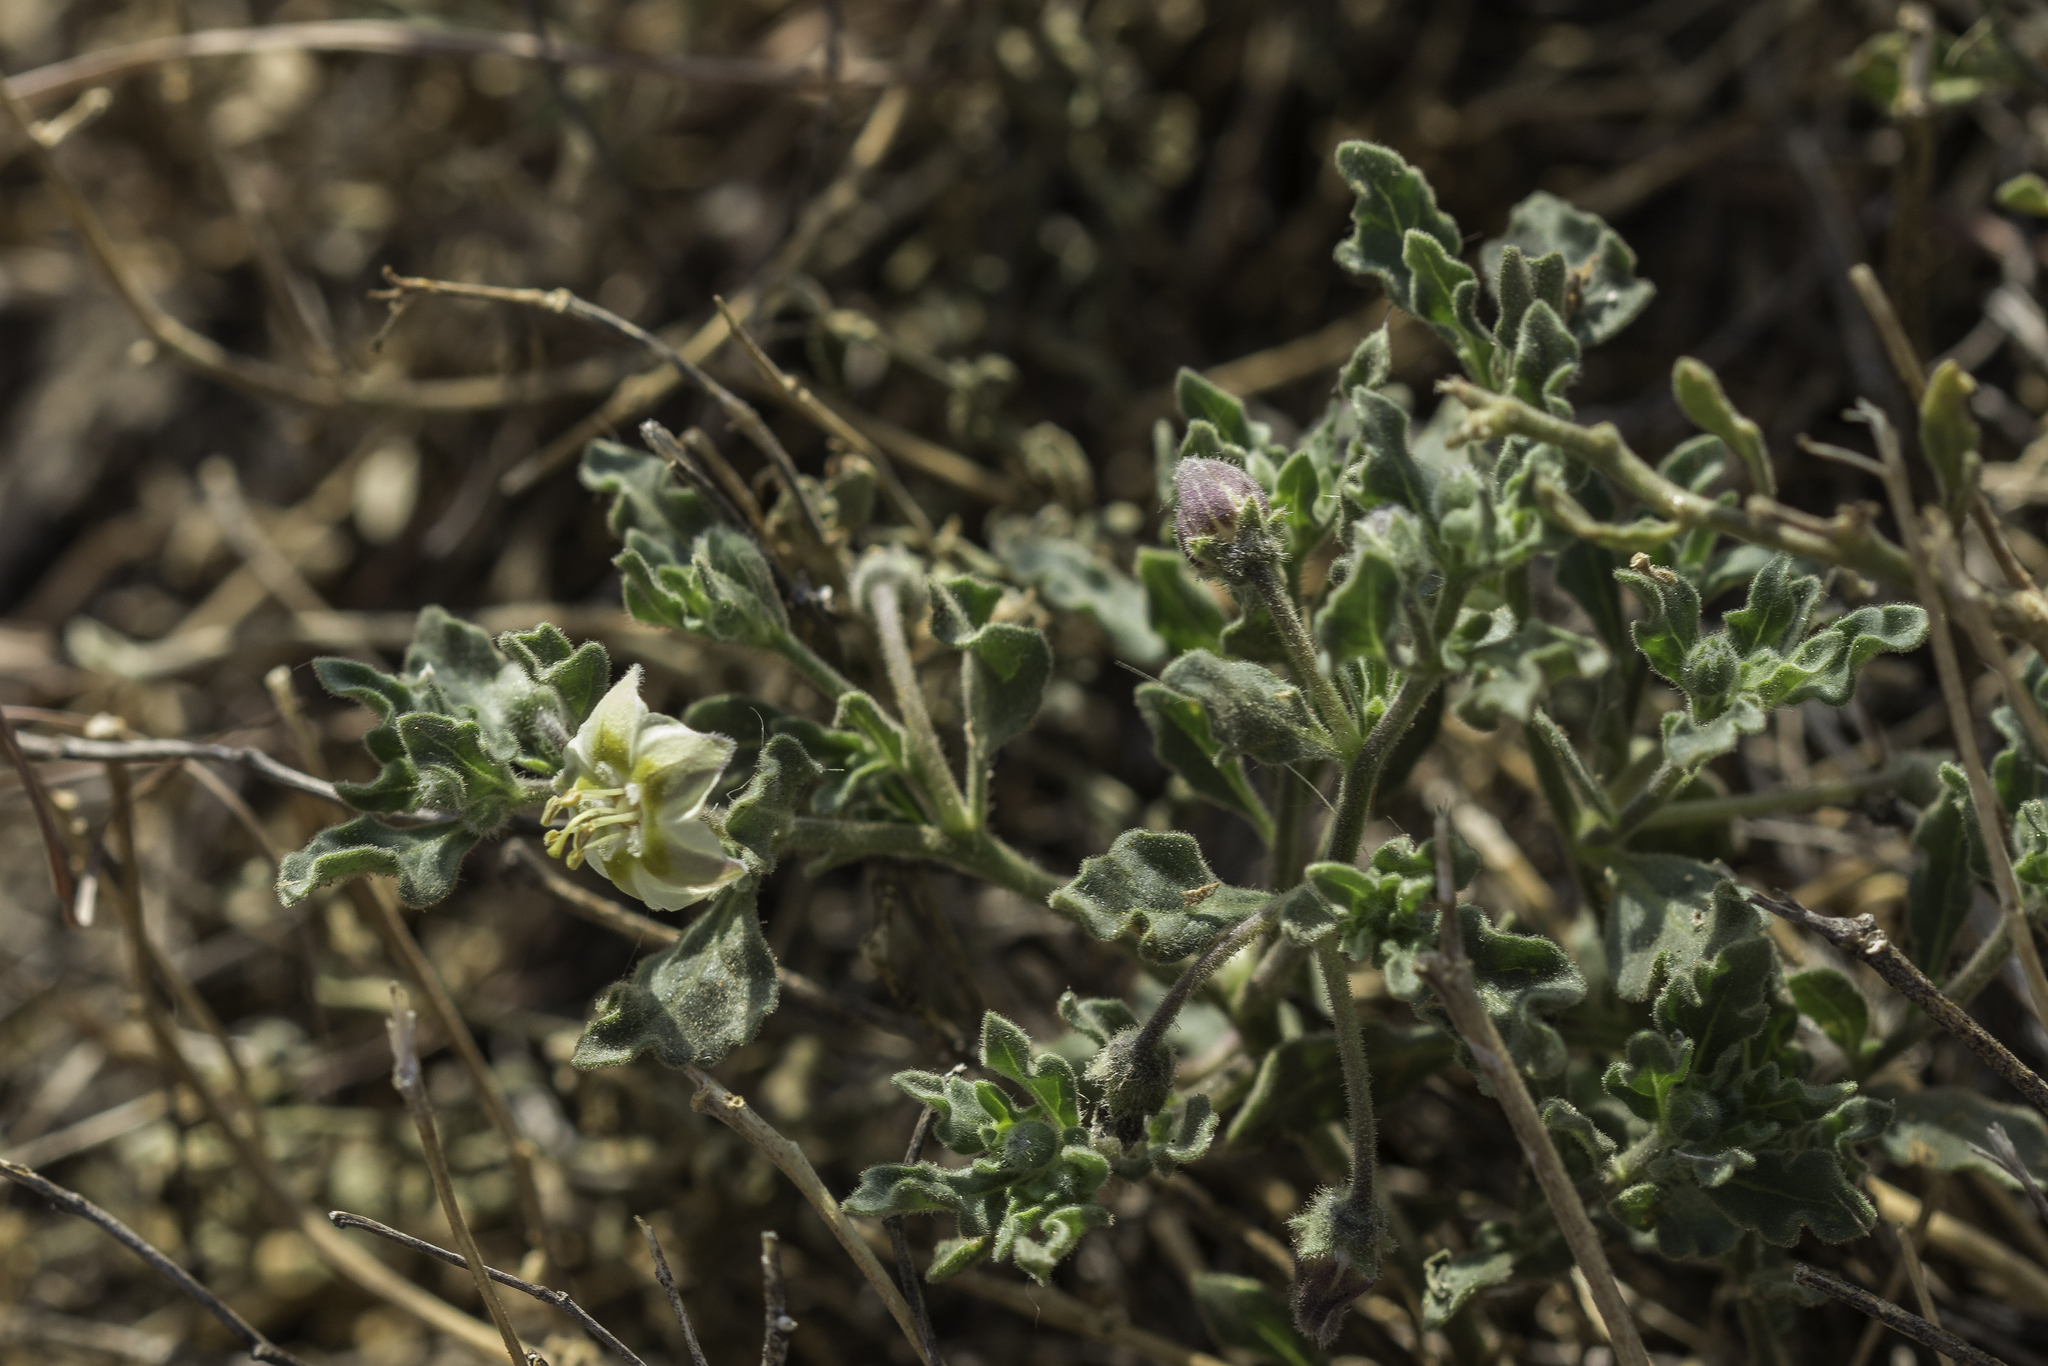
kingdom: Plantae
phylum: Tracheophyta
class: Magnoliopsida
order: Solanales
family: Solanaceae
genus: Chamaesaracha
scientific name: Chamaesaracha sordida
